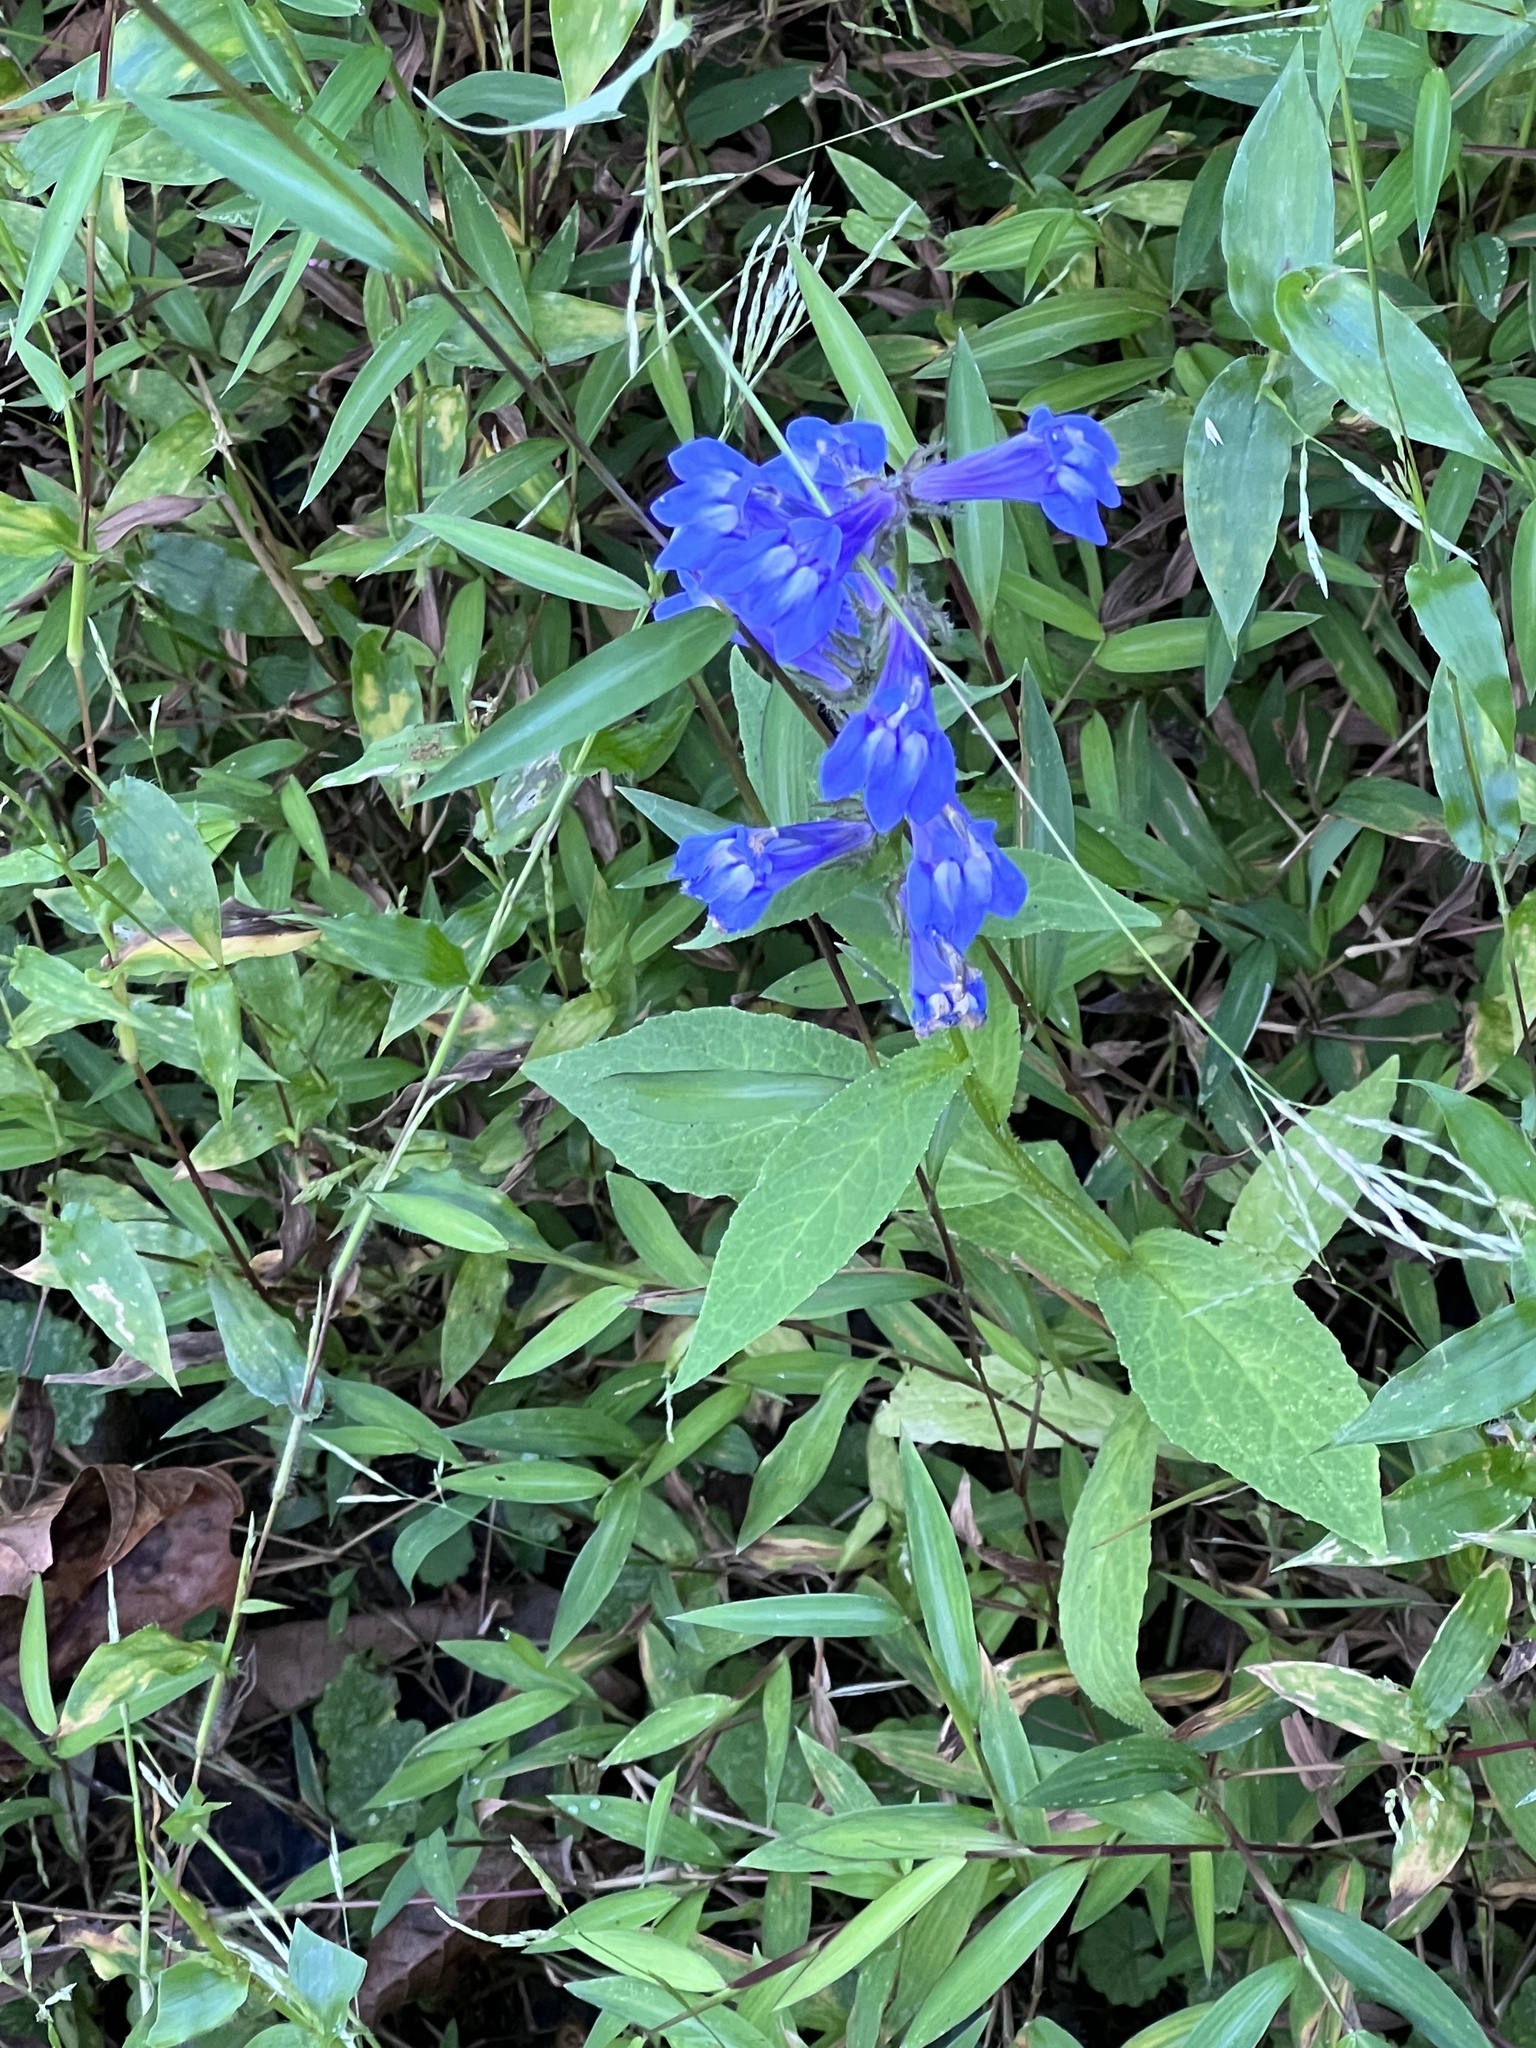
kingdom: Plantae
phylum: Tracheophyta
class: Magnoliopsida
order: Asterales
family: Campanulaceae
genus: Lobelia
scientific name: Lobelia siphilitica
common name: Great lobelia
